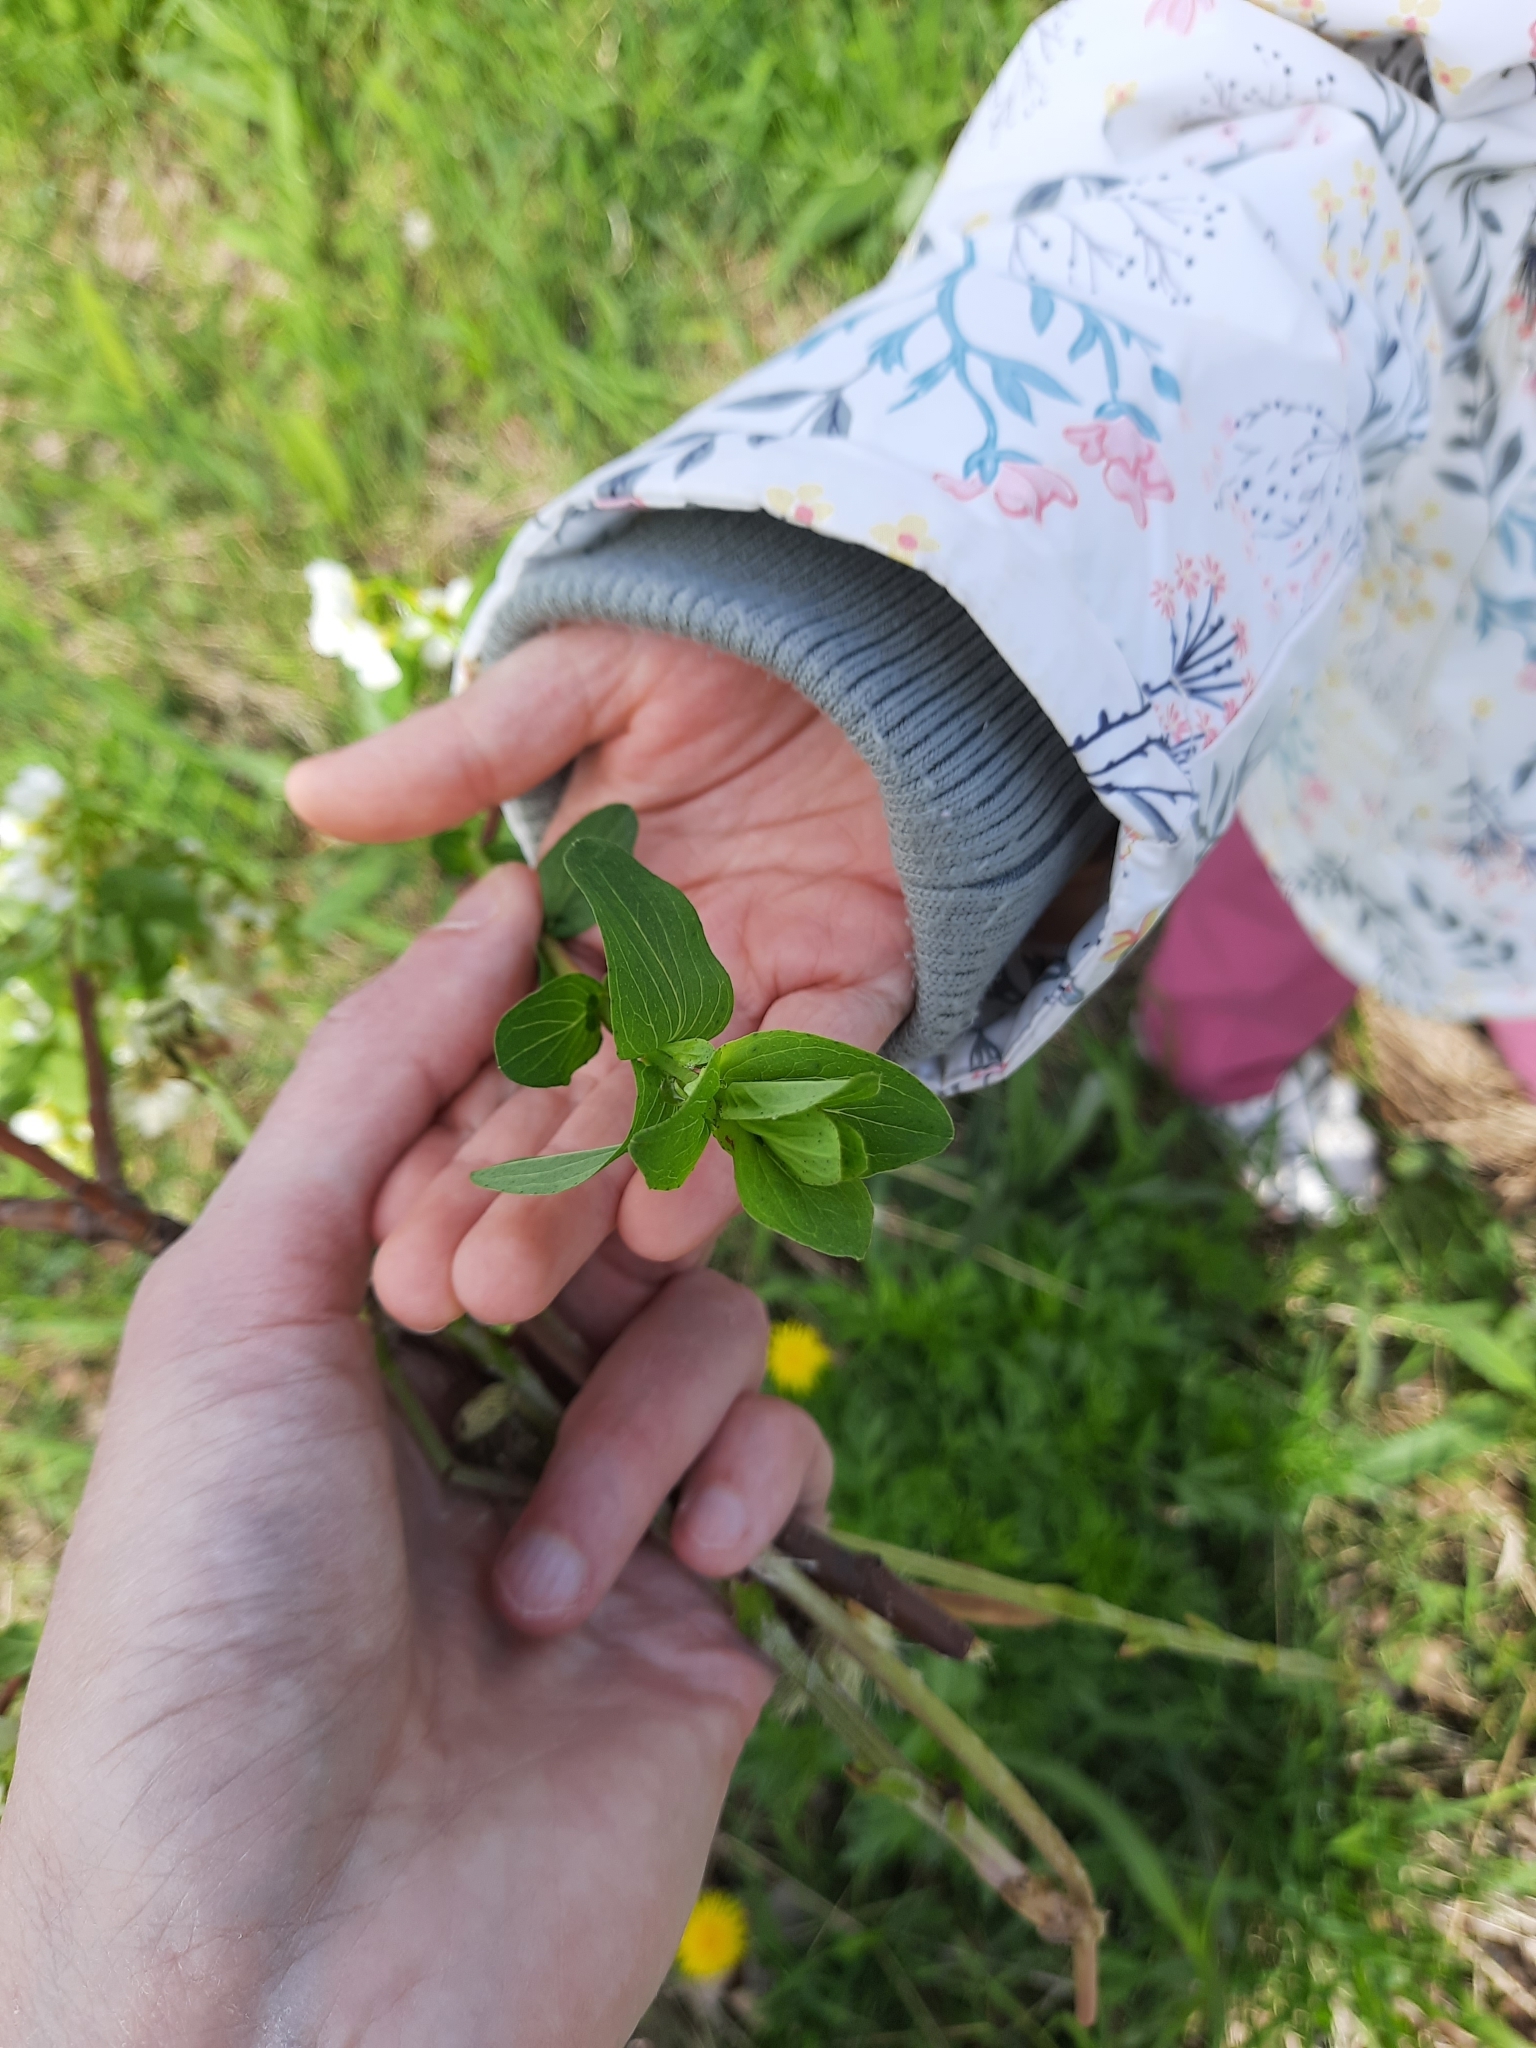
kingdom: Plantae
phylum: Tracheophyta
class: Magnoliopsida
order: Malpighiales
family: Hypericaceae
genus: Hypericum
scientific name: Hypericum perforatum
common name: Common st. johnswort
